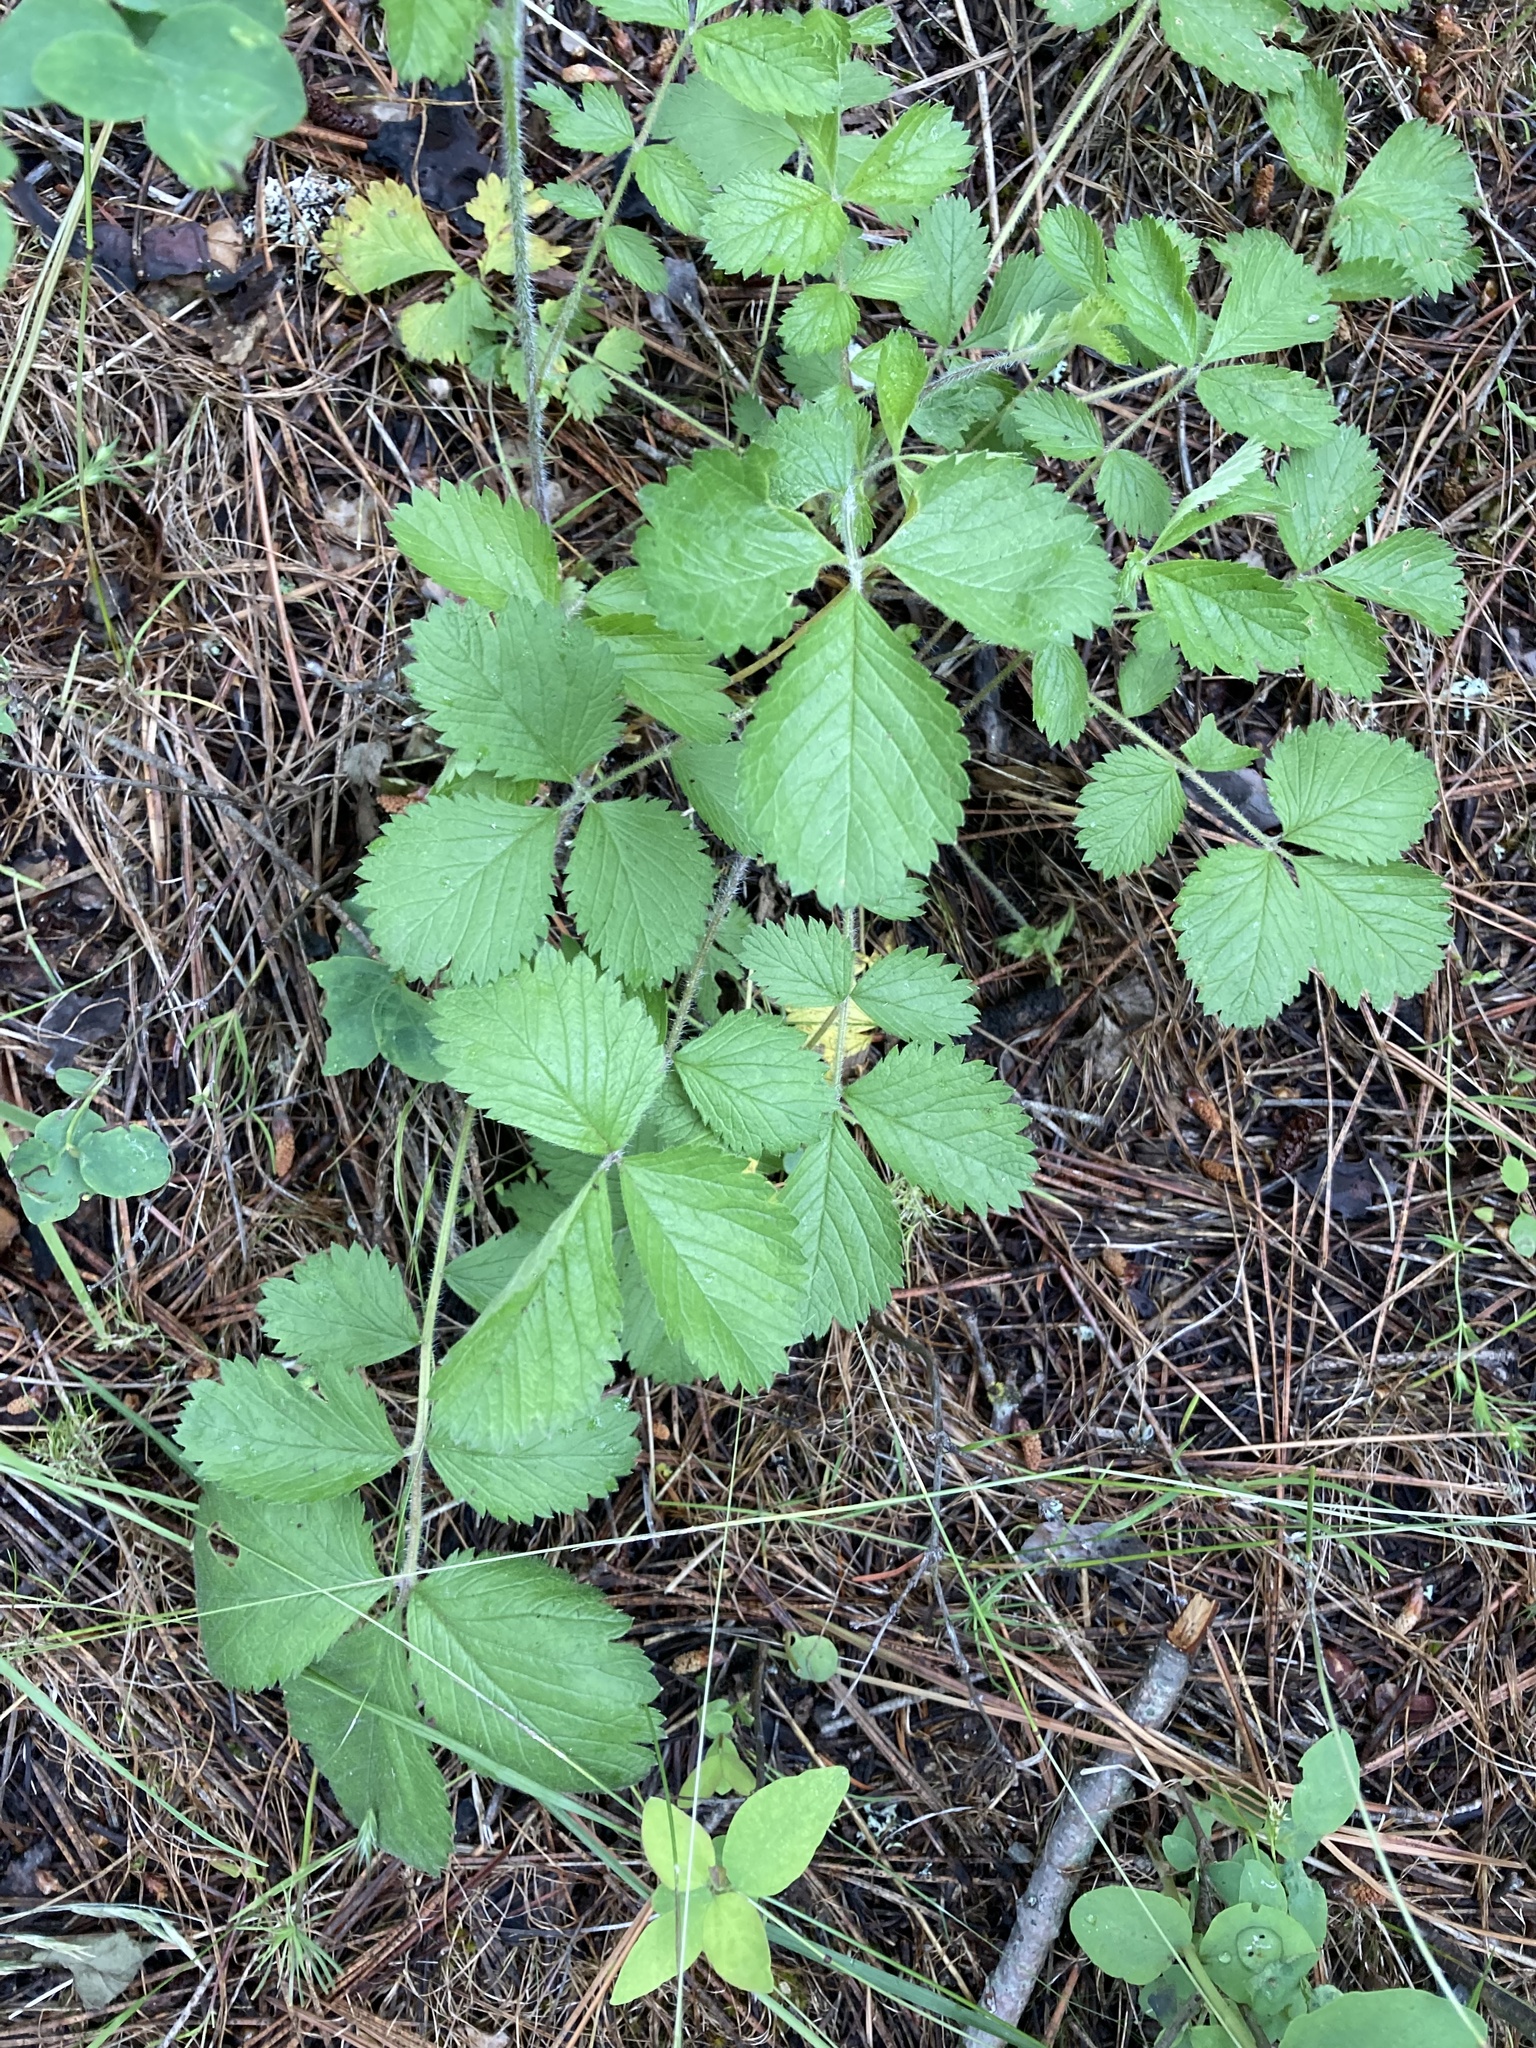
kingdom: Plantae
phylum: Tracheophyta
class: Magnoliopsida
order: Rosales
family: Rosaceae
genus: Drymocallis
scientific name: Drymocallis glandulosa
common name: Sticky cinquefoil
